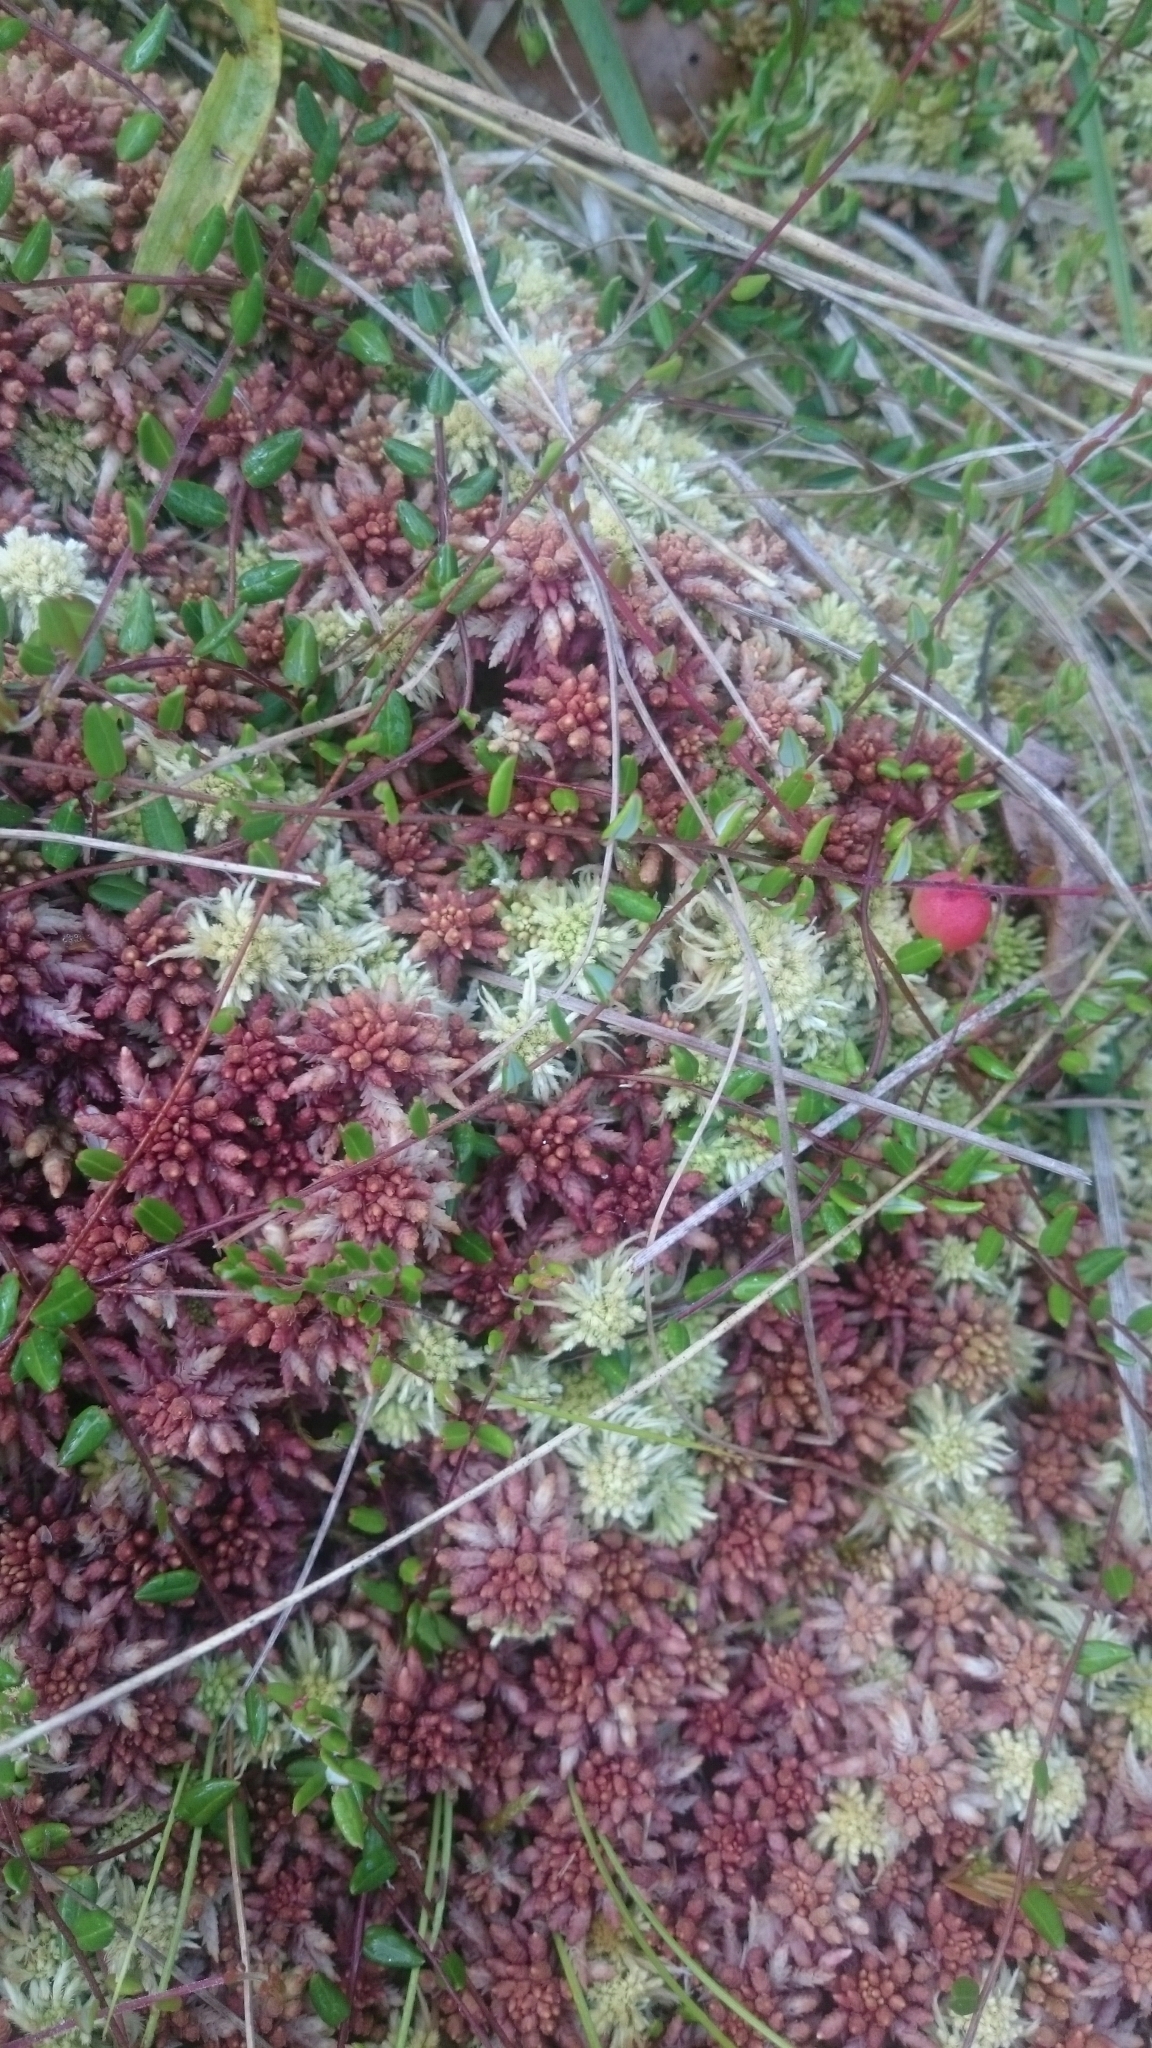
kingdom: Plantae
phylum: Tracheophyta
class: Magnoliopsida
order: Ericales
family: Ericaceae
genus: Vaccinium
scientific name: Vaccinium oxycoccos
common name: Cranberry
